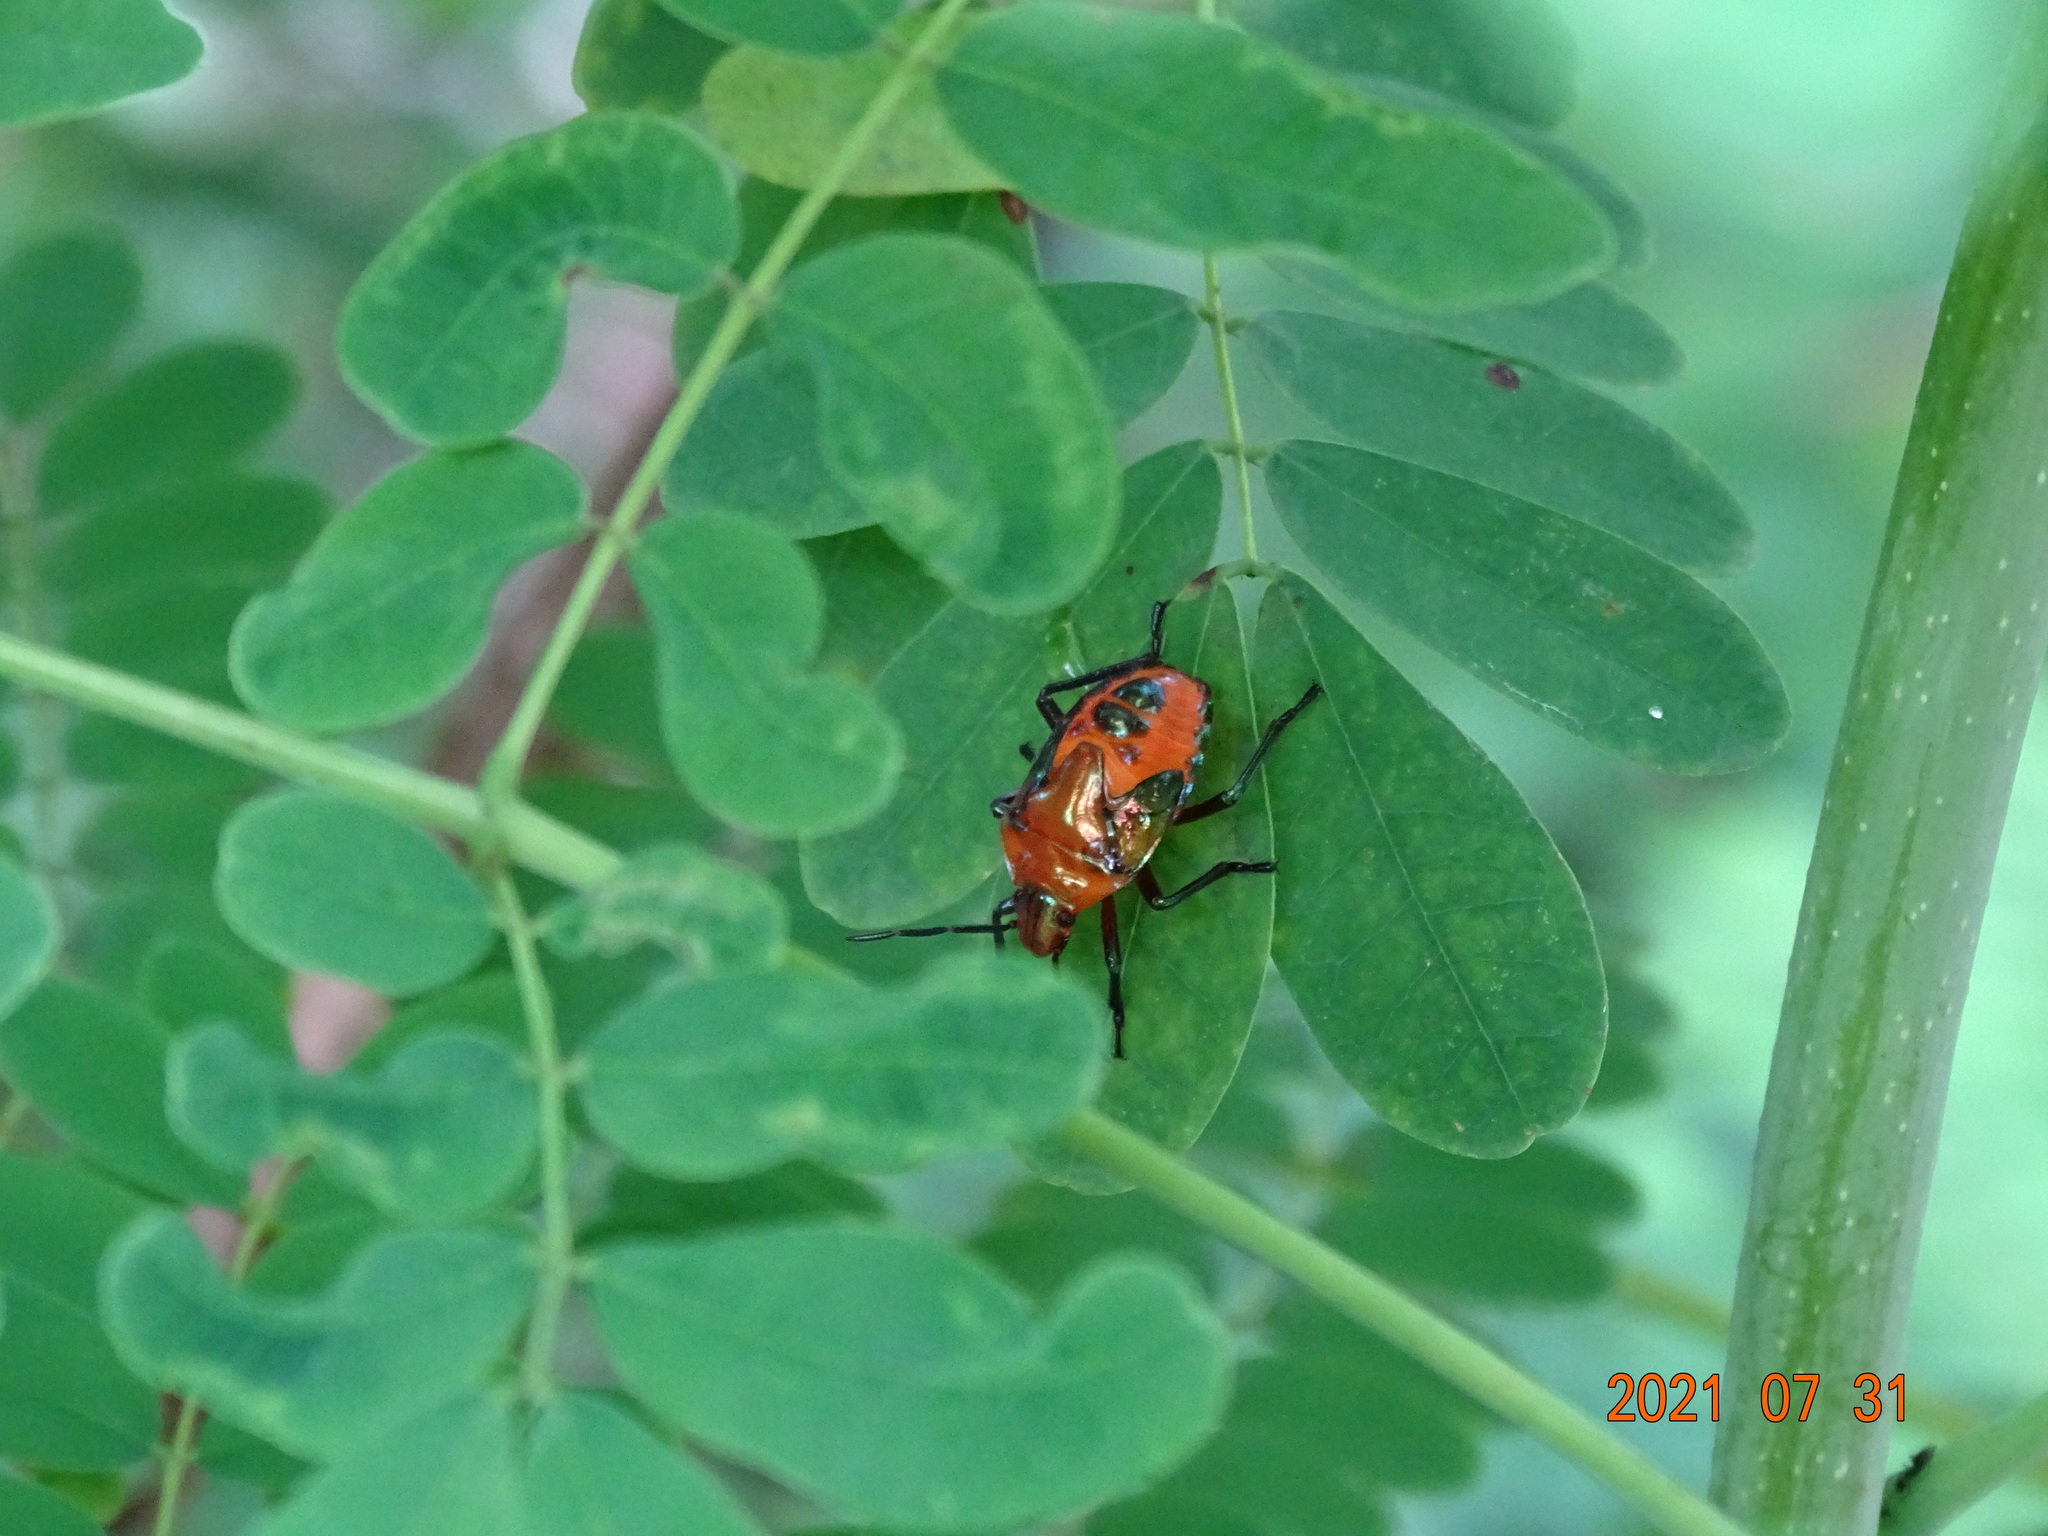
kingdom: Animalia
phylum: Arthropoda
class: Insecta
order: Hemiptera
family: Scutelleridae
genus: Cantao
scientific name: Cantao ocellatus
